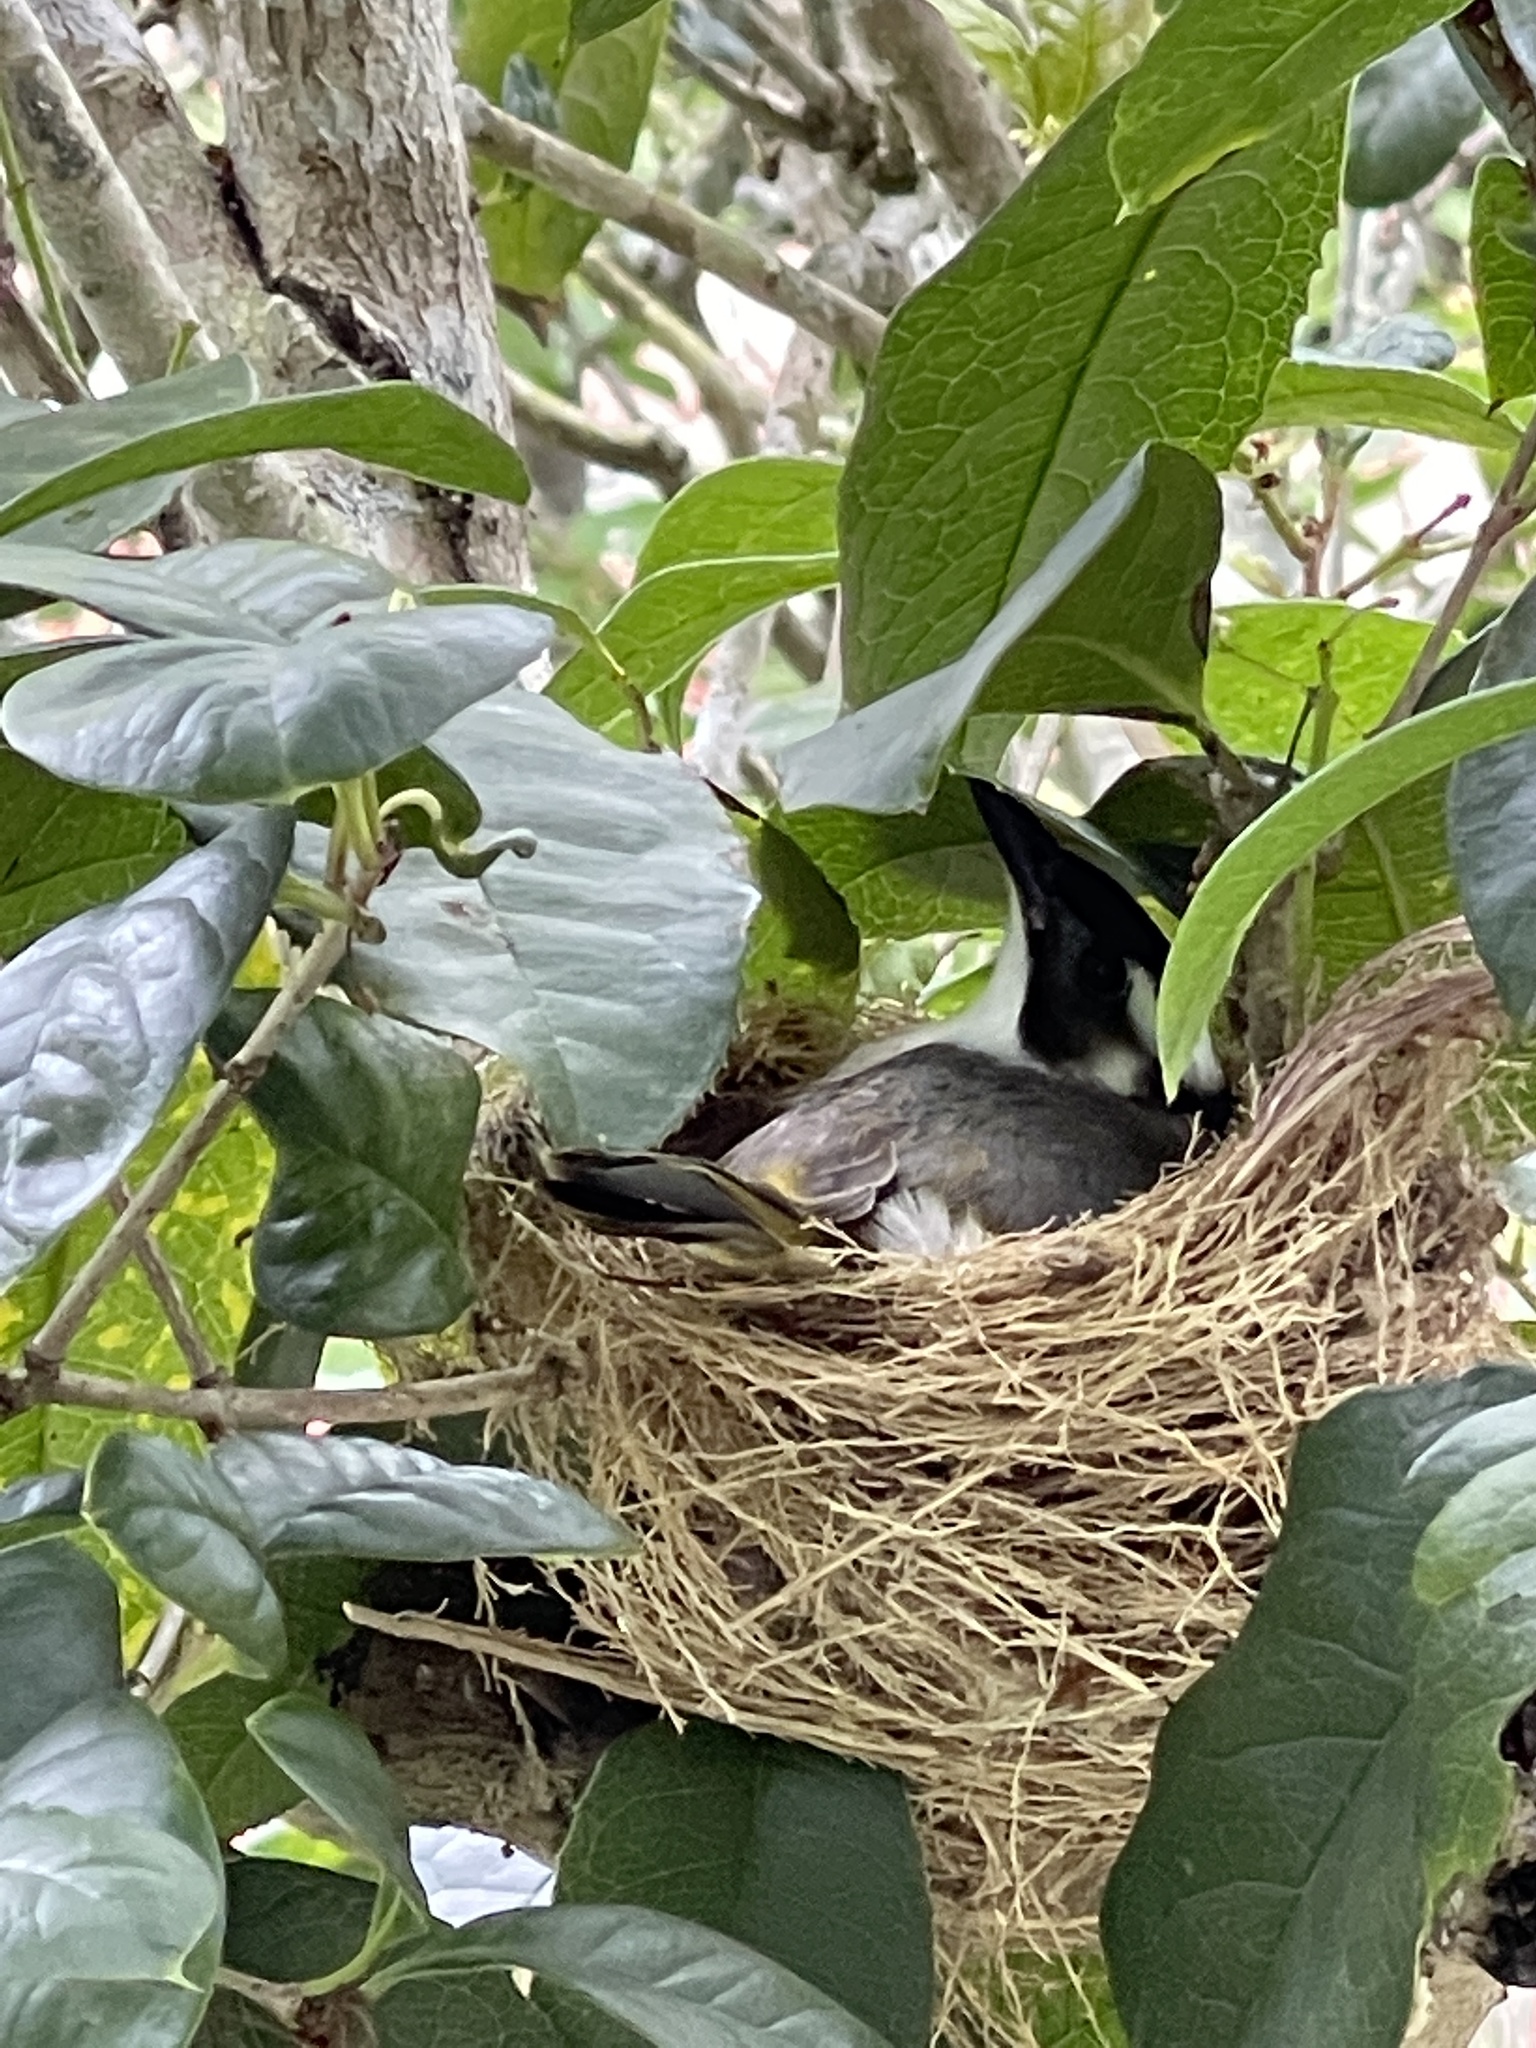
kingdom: Animalia
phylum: Chordata
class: Aves
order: Passeriformes
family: Pycnonotidae
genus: Pycnonotus
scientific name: Pycnonotus sinensis
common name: Light-vented bulbul
